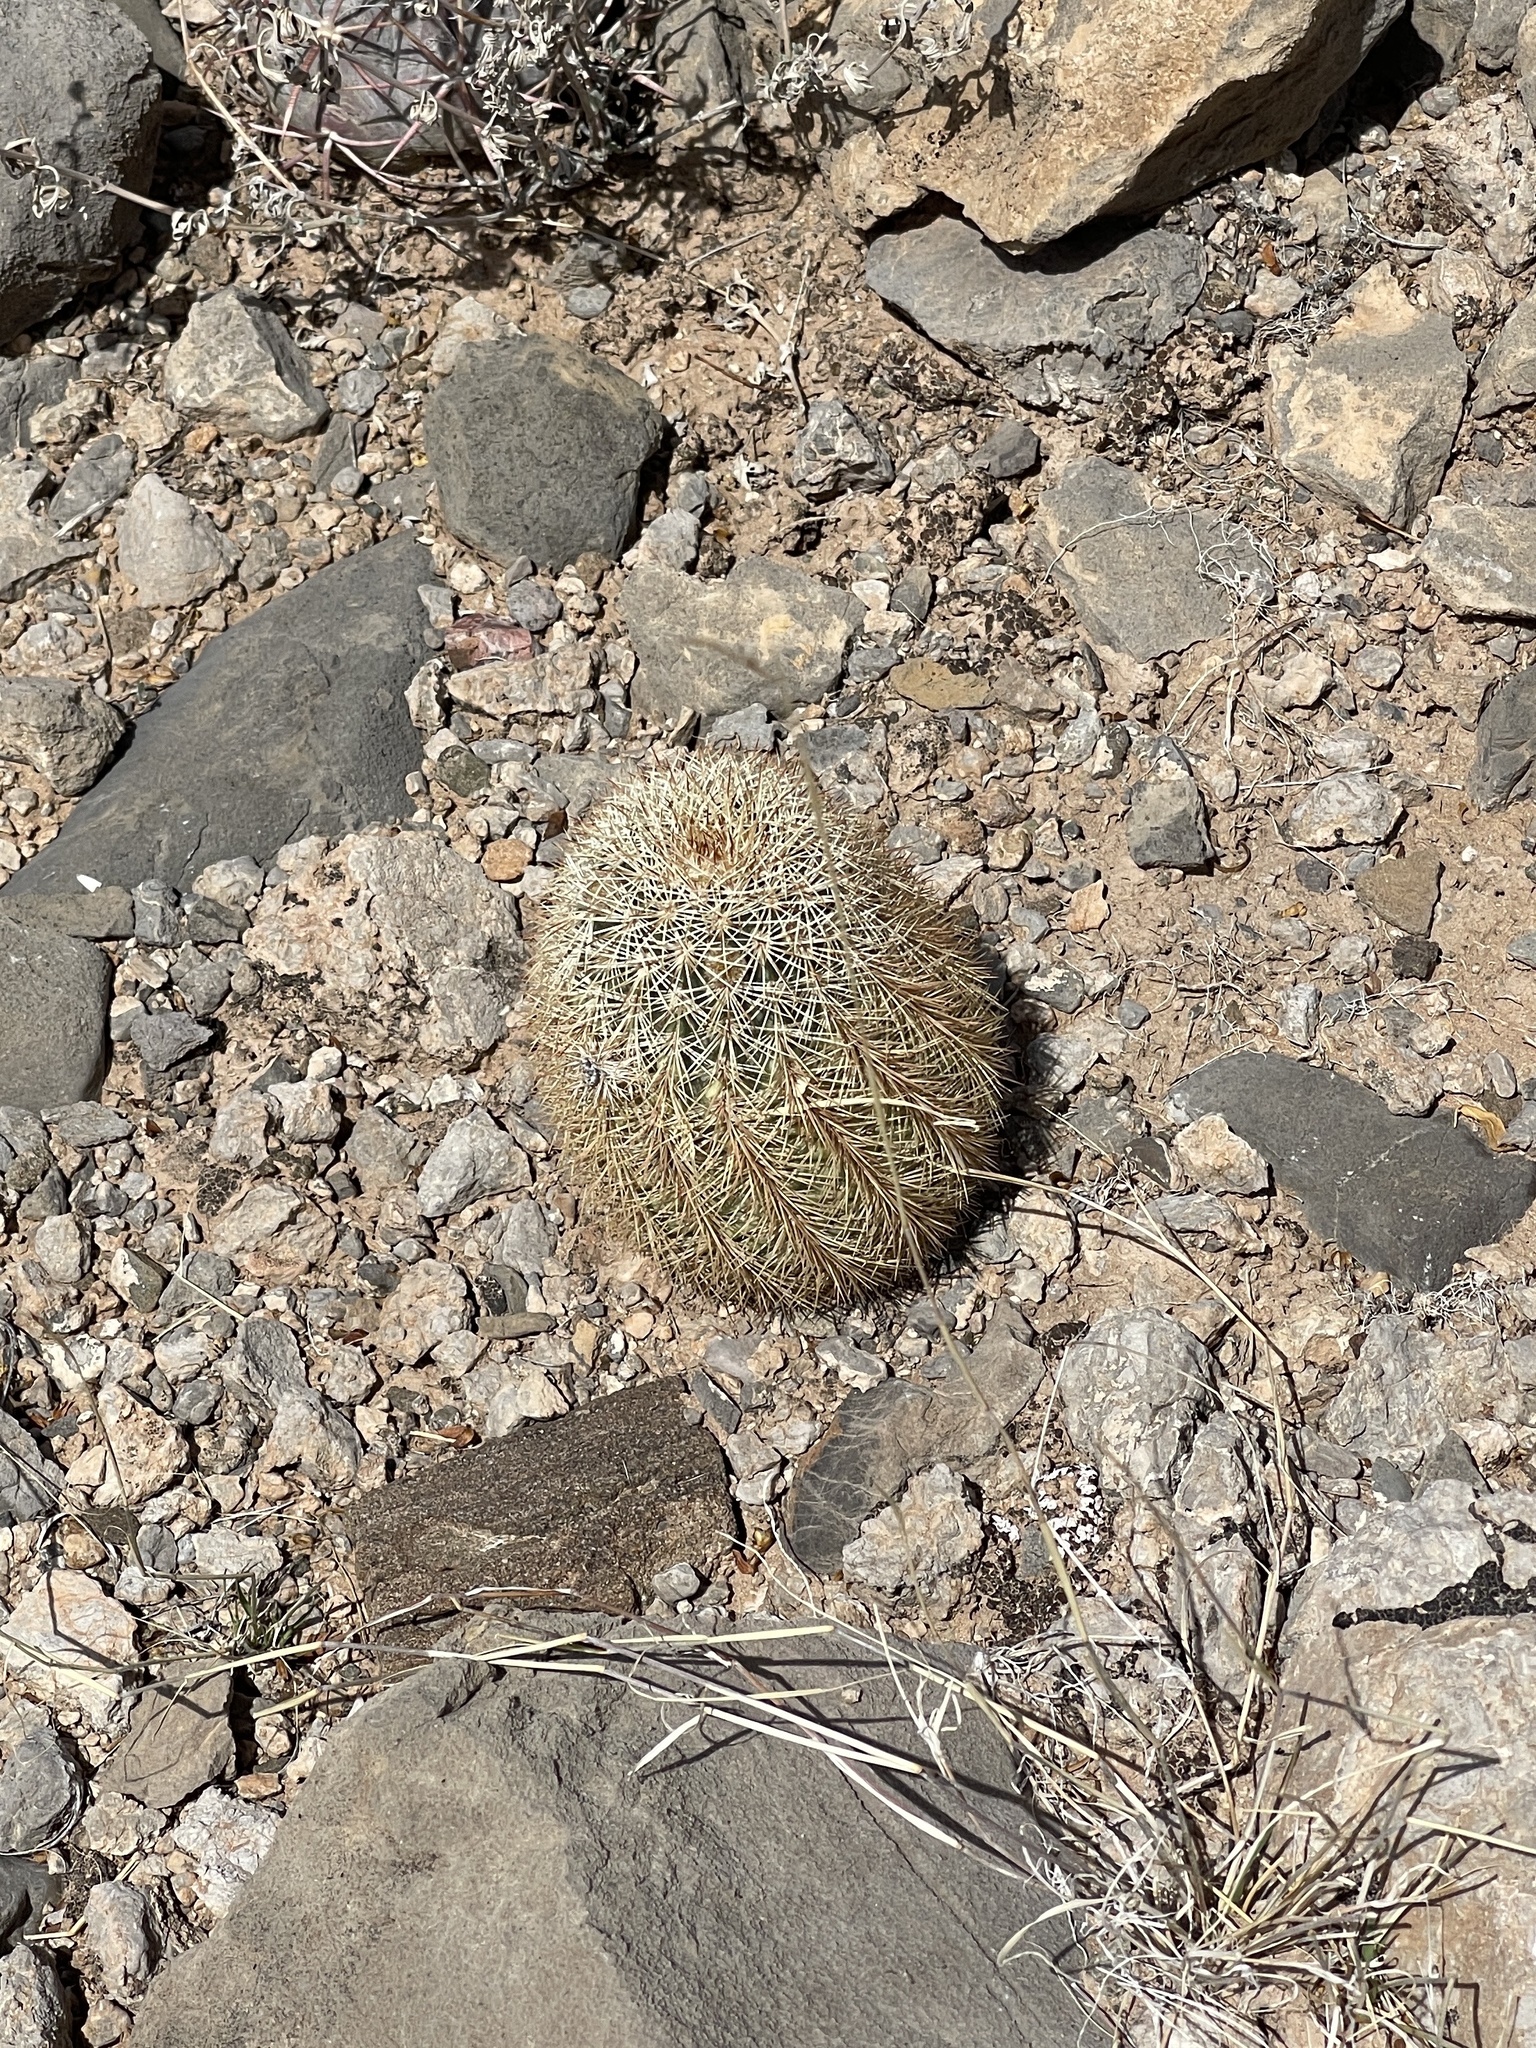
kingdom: Plantae
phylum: Tracheophyta
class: Magnoliopsida
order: Caryophyllales
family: Cactaceae
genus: Echinocereus
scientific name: Echinocereus dasyacanthus
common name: Spiny hedgehog cactus
